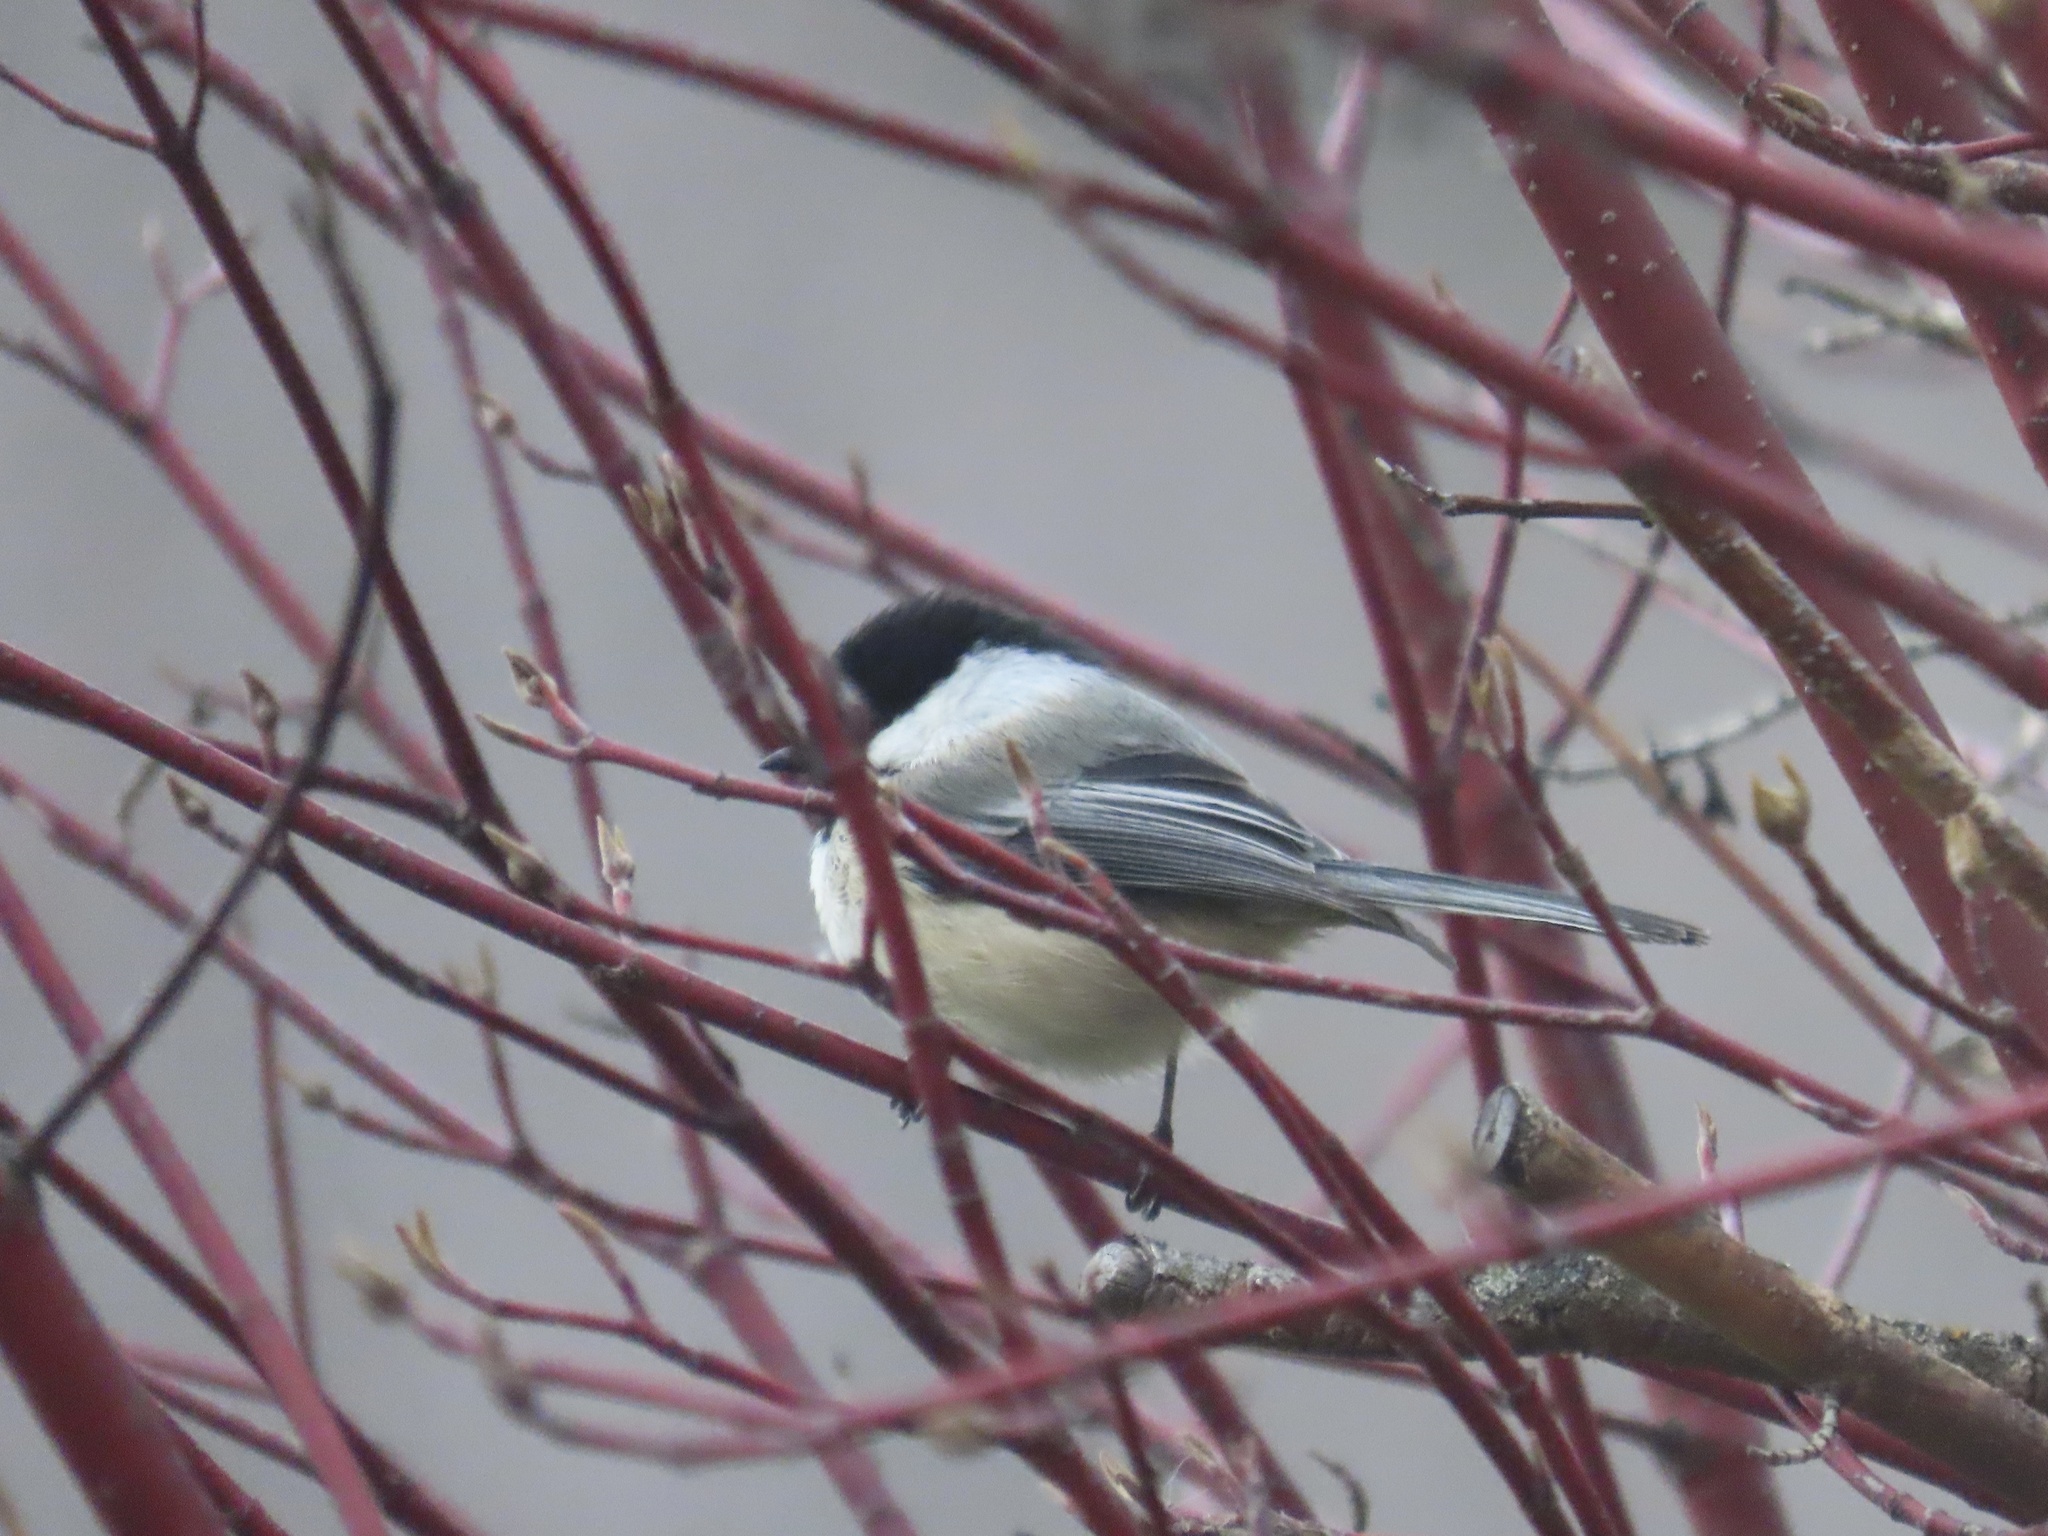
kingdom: Animalia
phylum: Chordata
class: Aves
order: Passeriformes
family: Paridae
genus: Poecile
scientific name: Poecile atricapillus
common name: Black-capped chickadee
